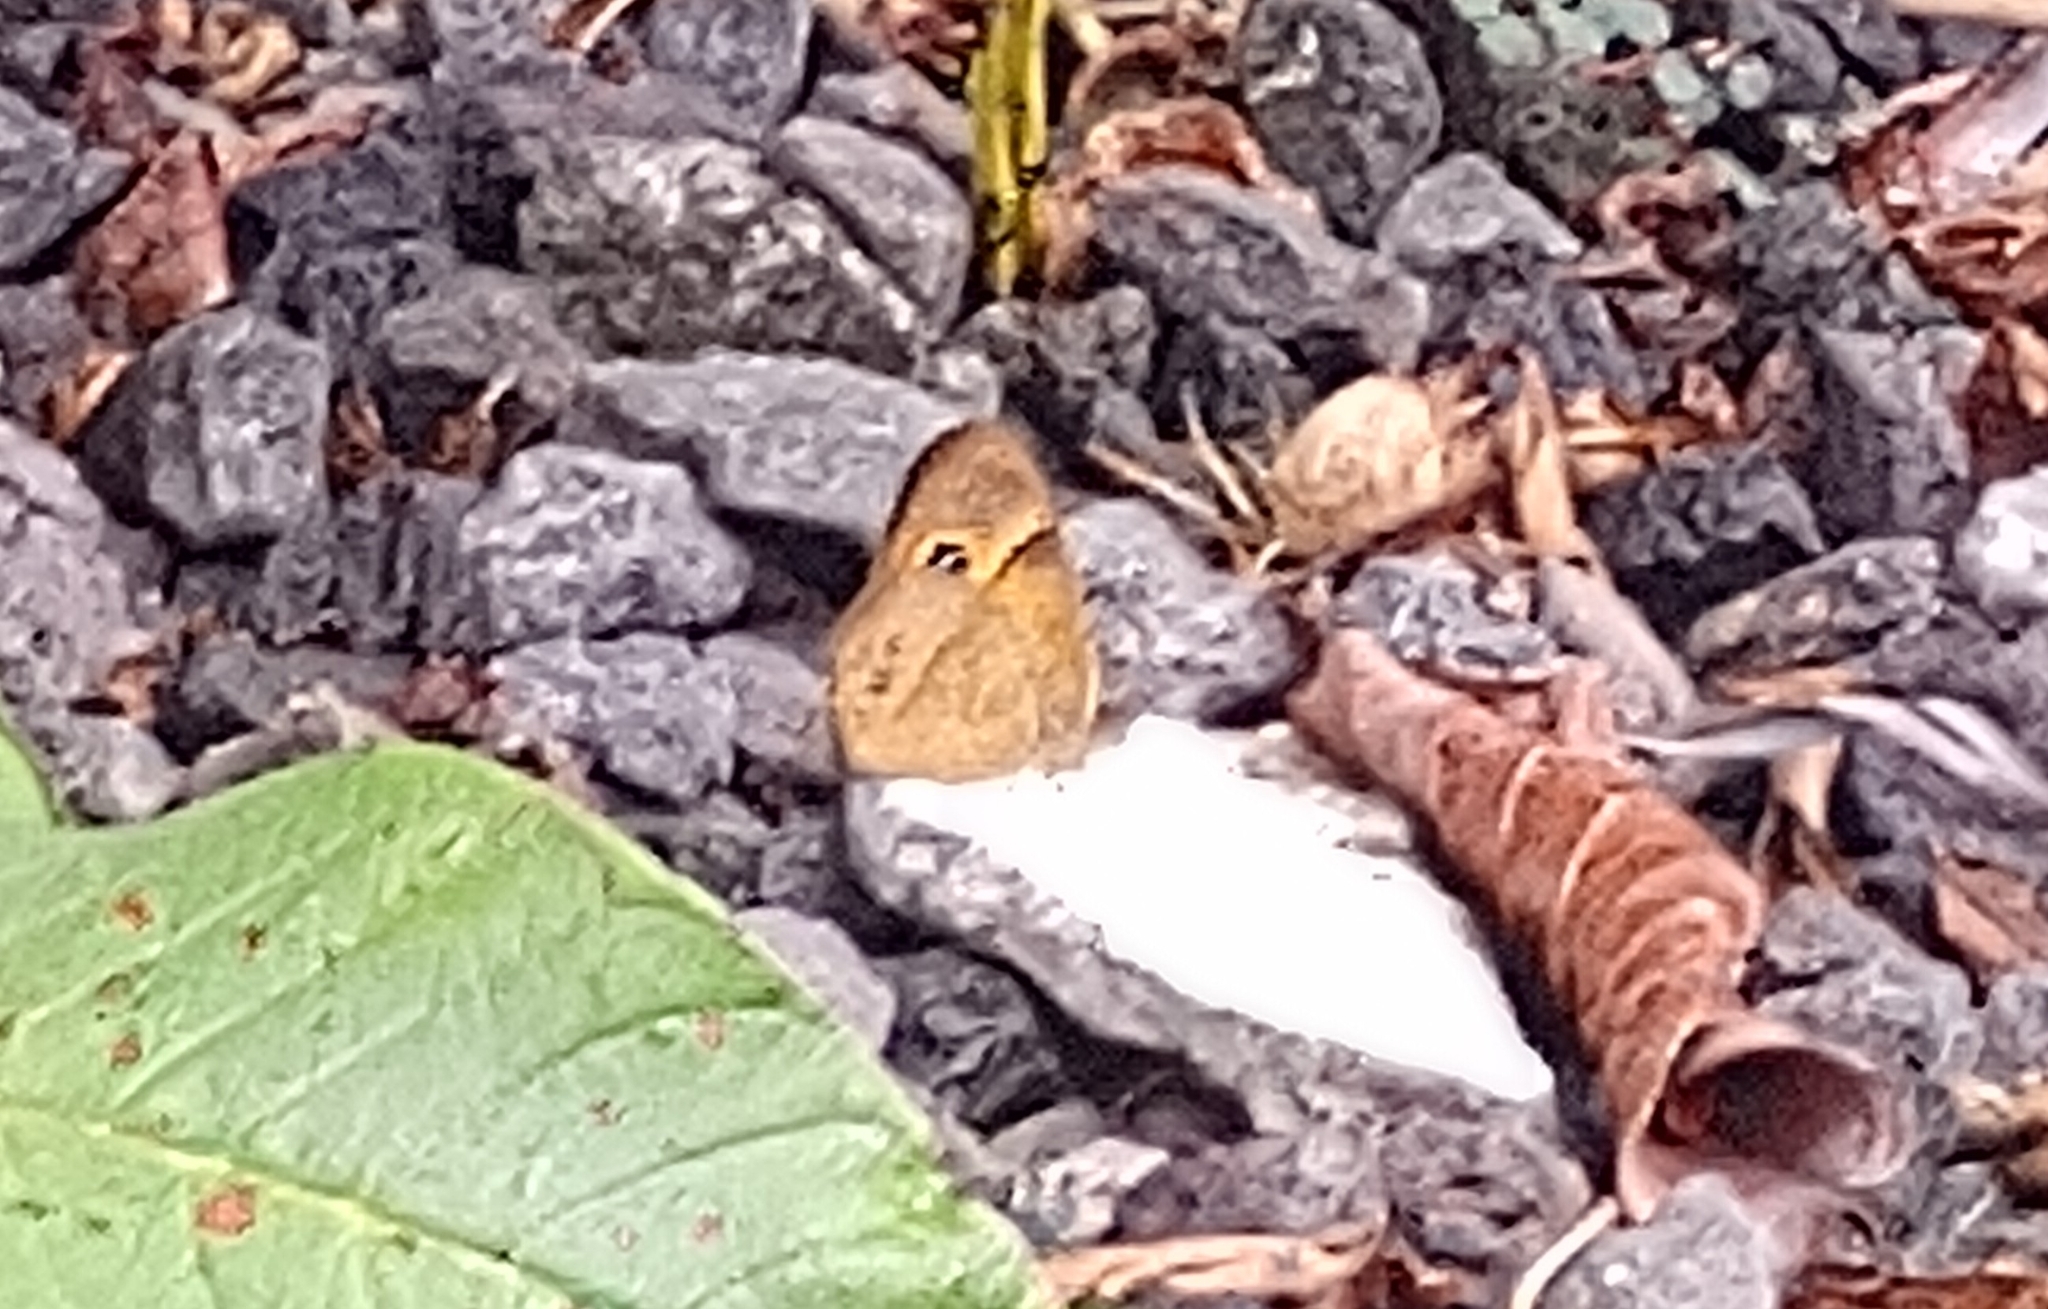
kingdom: Animalia
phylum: Arthropoda
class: Insecta
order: Lepidoptera
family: Nymphalidae
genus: Henotesia
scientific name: Henotesia narcissus
